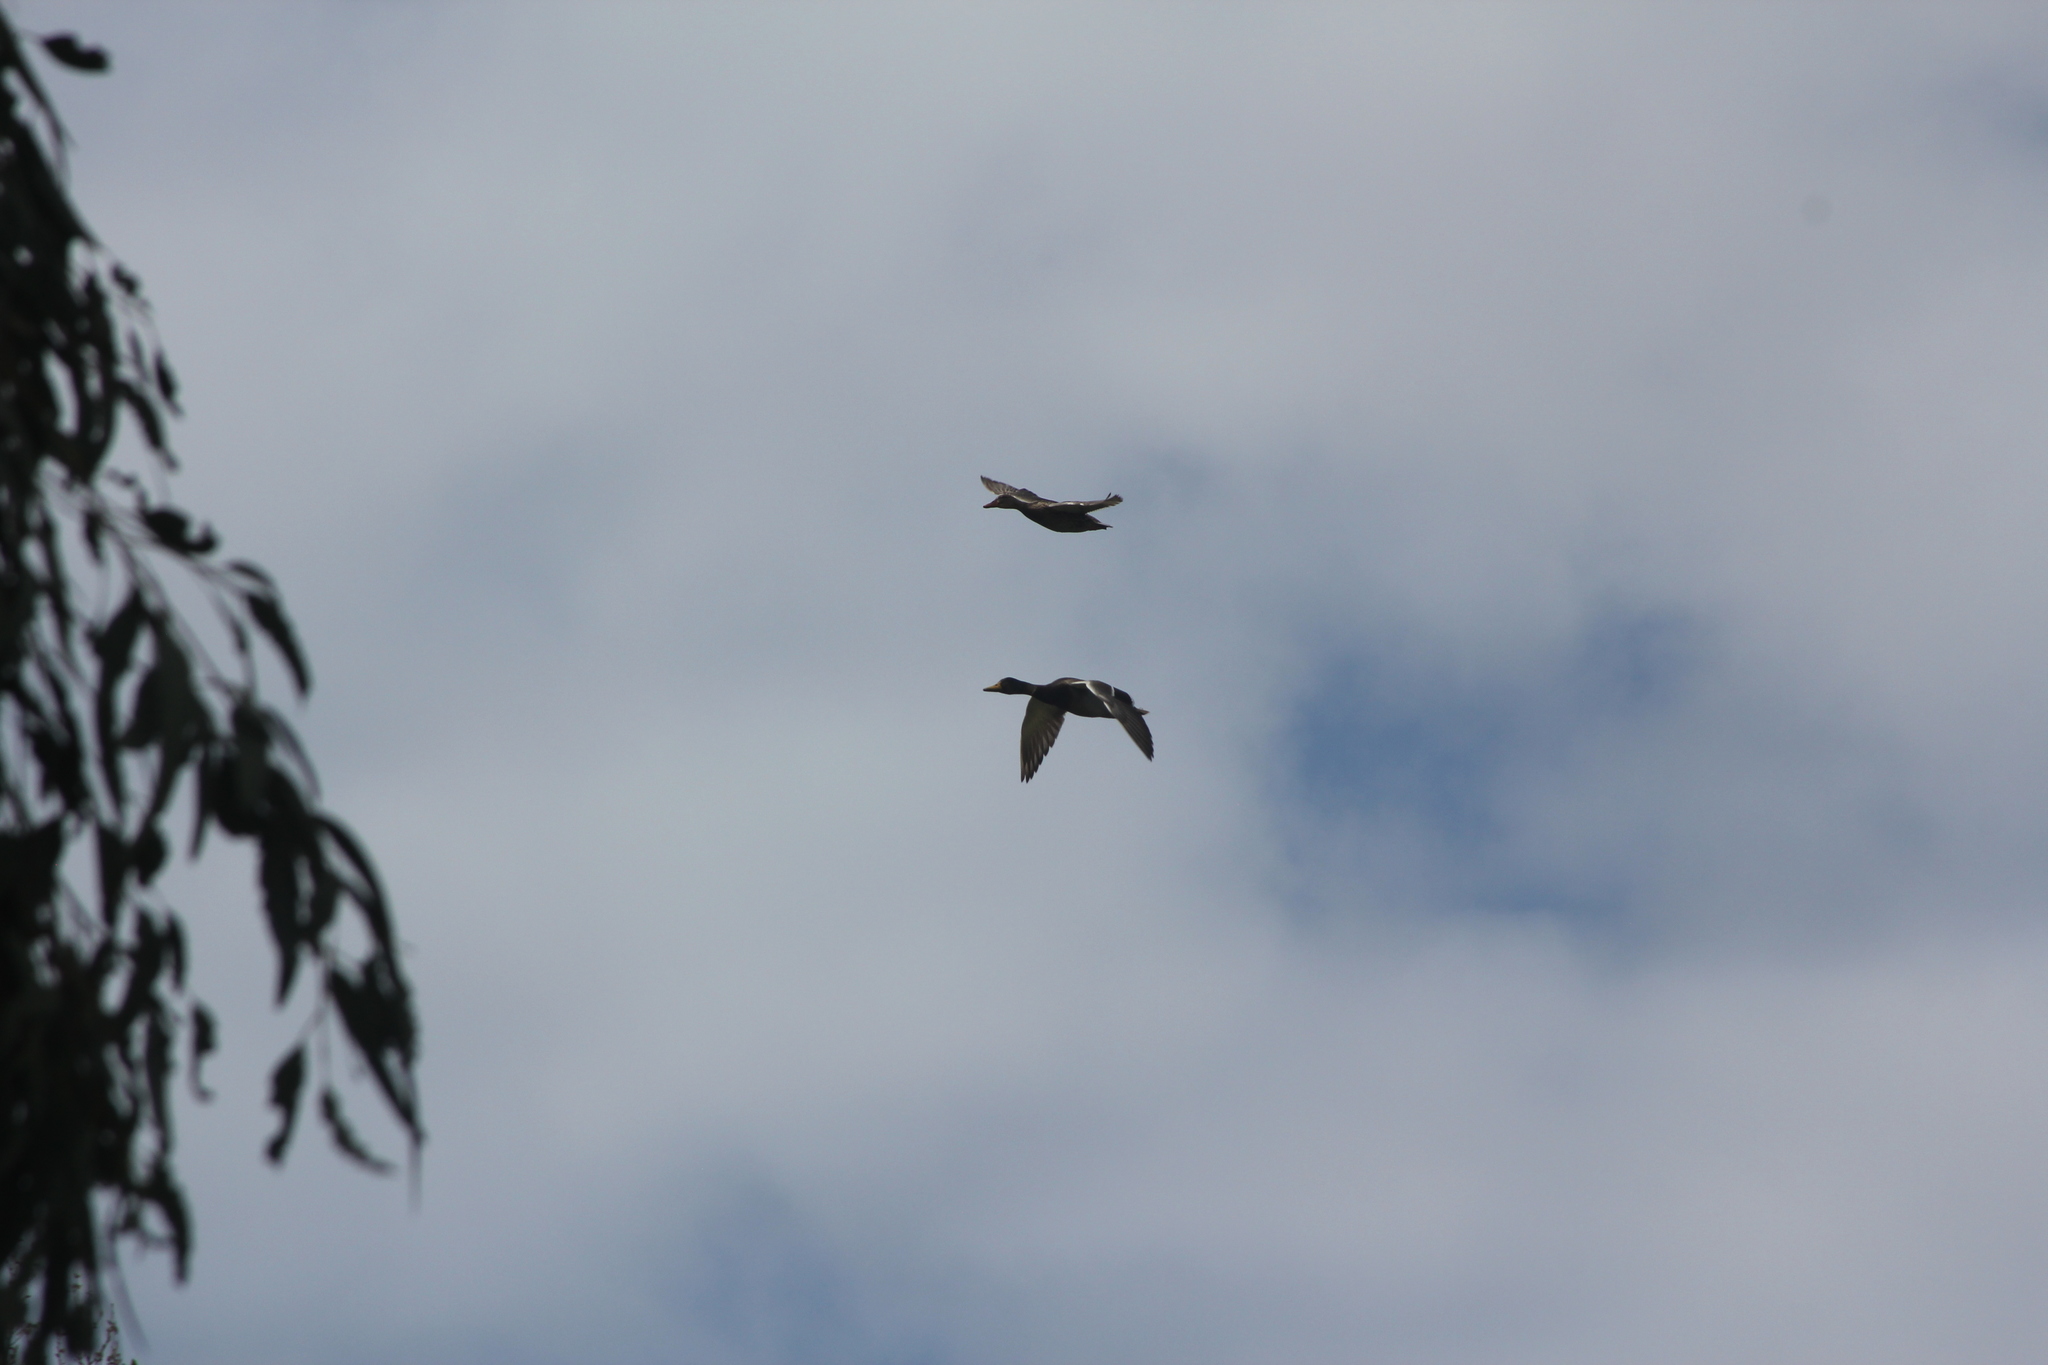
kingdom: Animalia
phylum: Chordata
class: Aves
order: Anseriformes
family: Anatidae
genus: Anas
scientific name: Anas platyrhynchos
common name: Mallard
